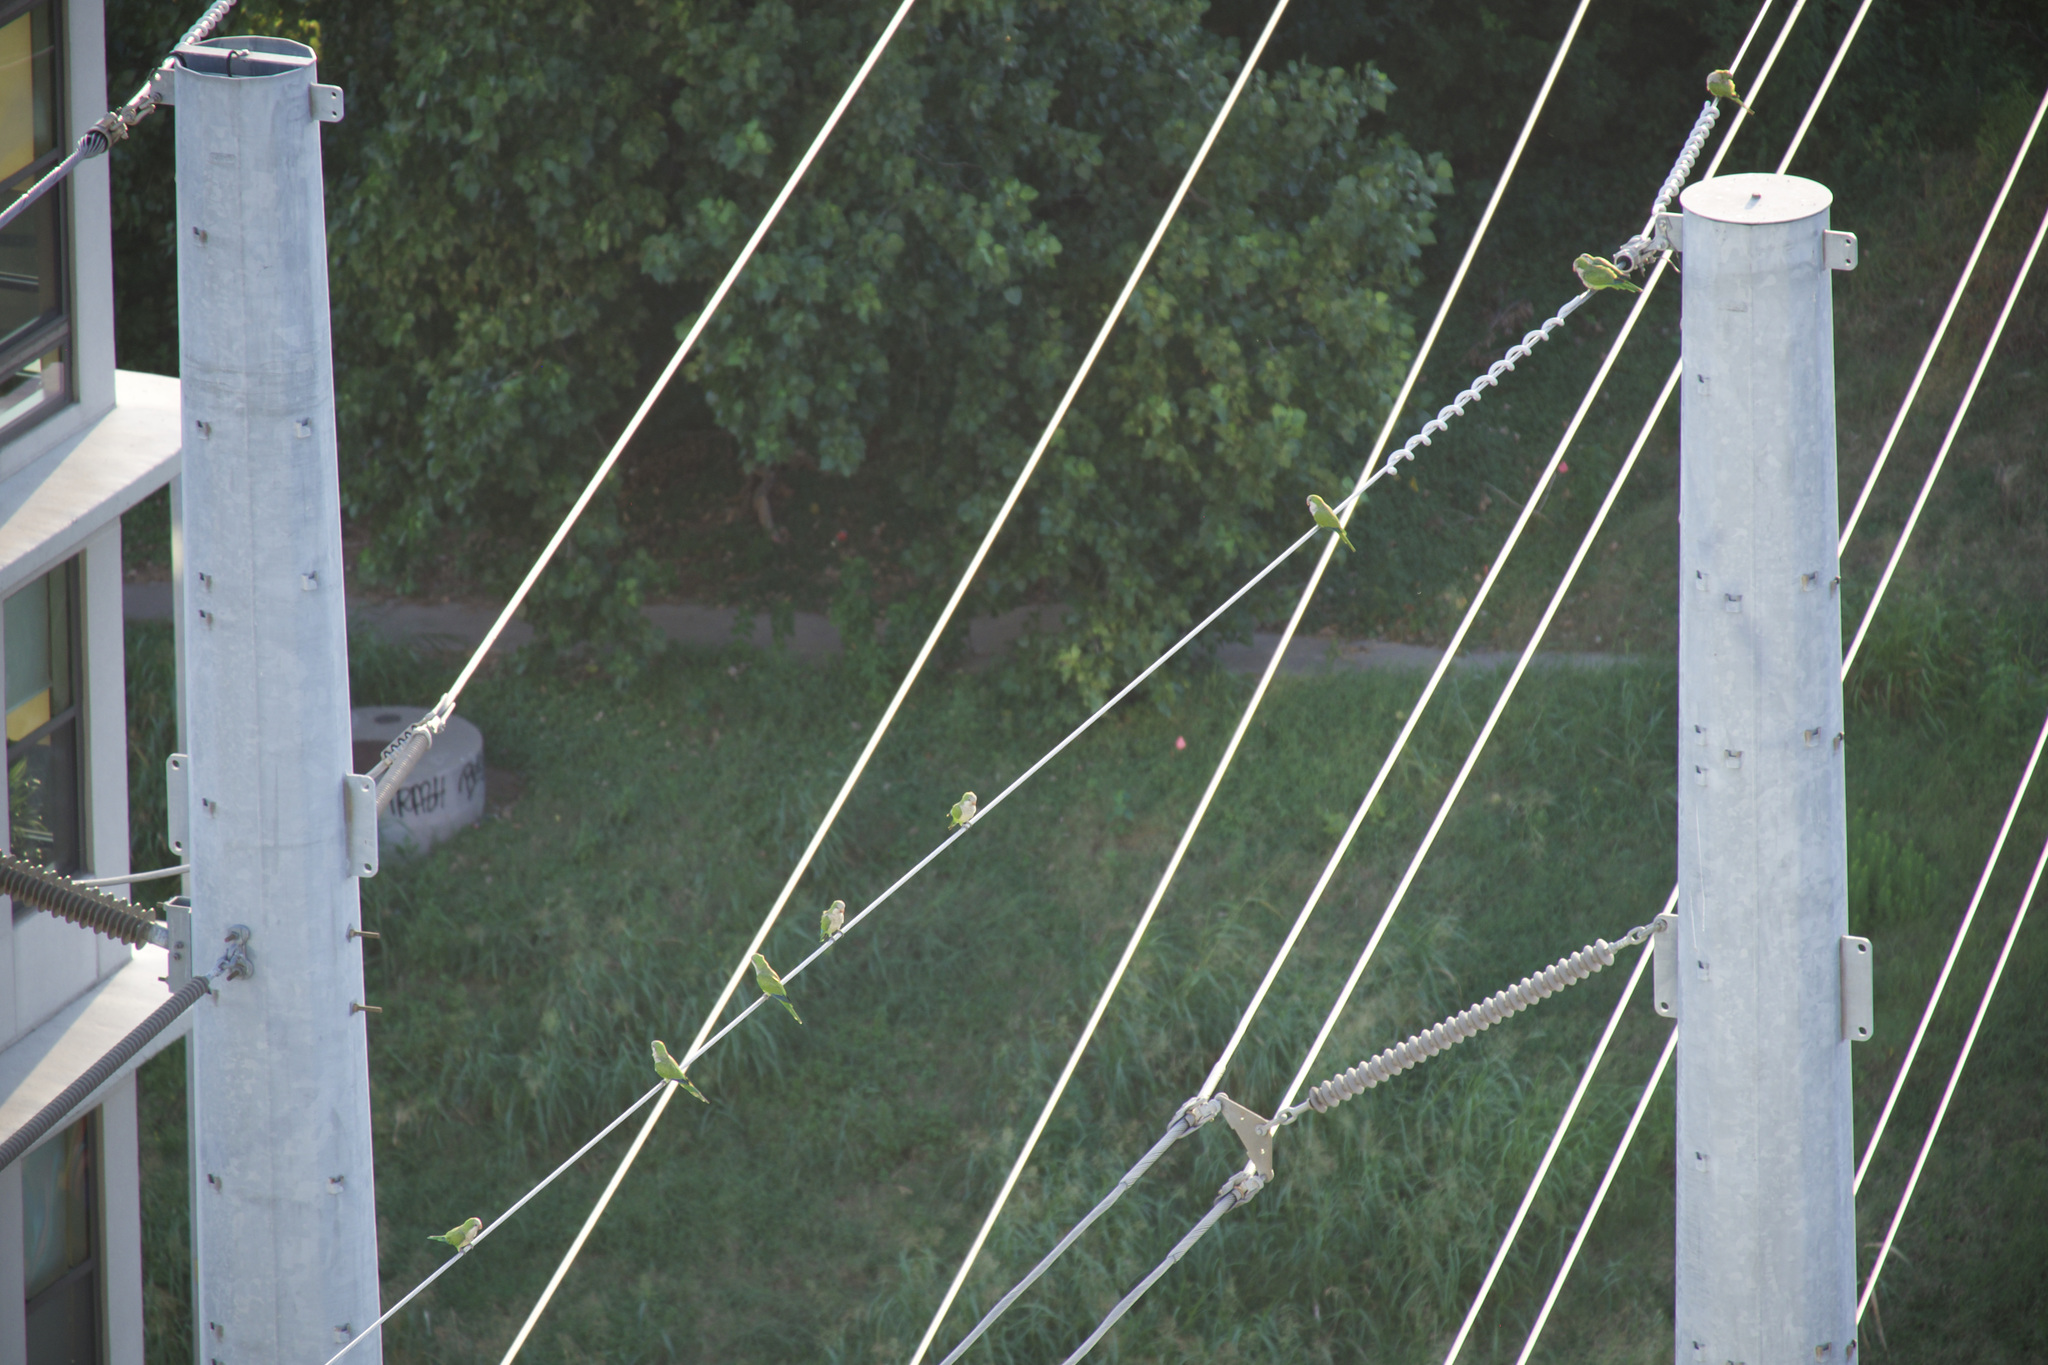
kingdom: Animalia
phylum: Chordata
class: Aves
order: Psittaciformes
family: Psittacidae
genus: Myiopsitta
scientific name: Myiopsitta monachus
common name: Monk parakeet
